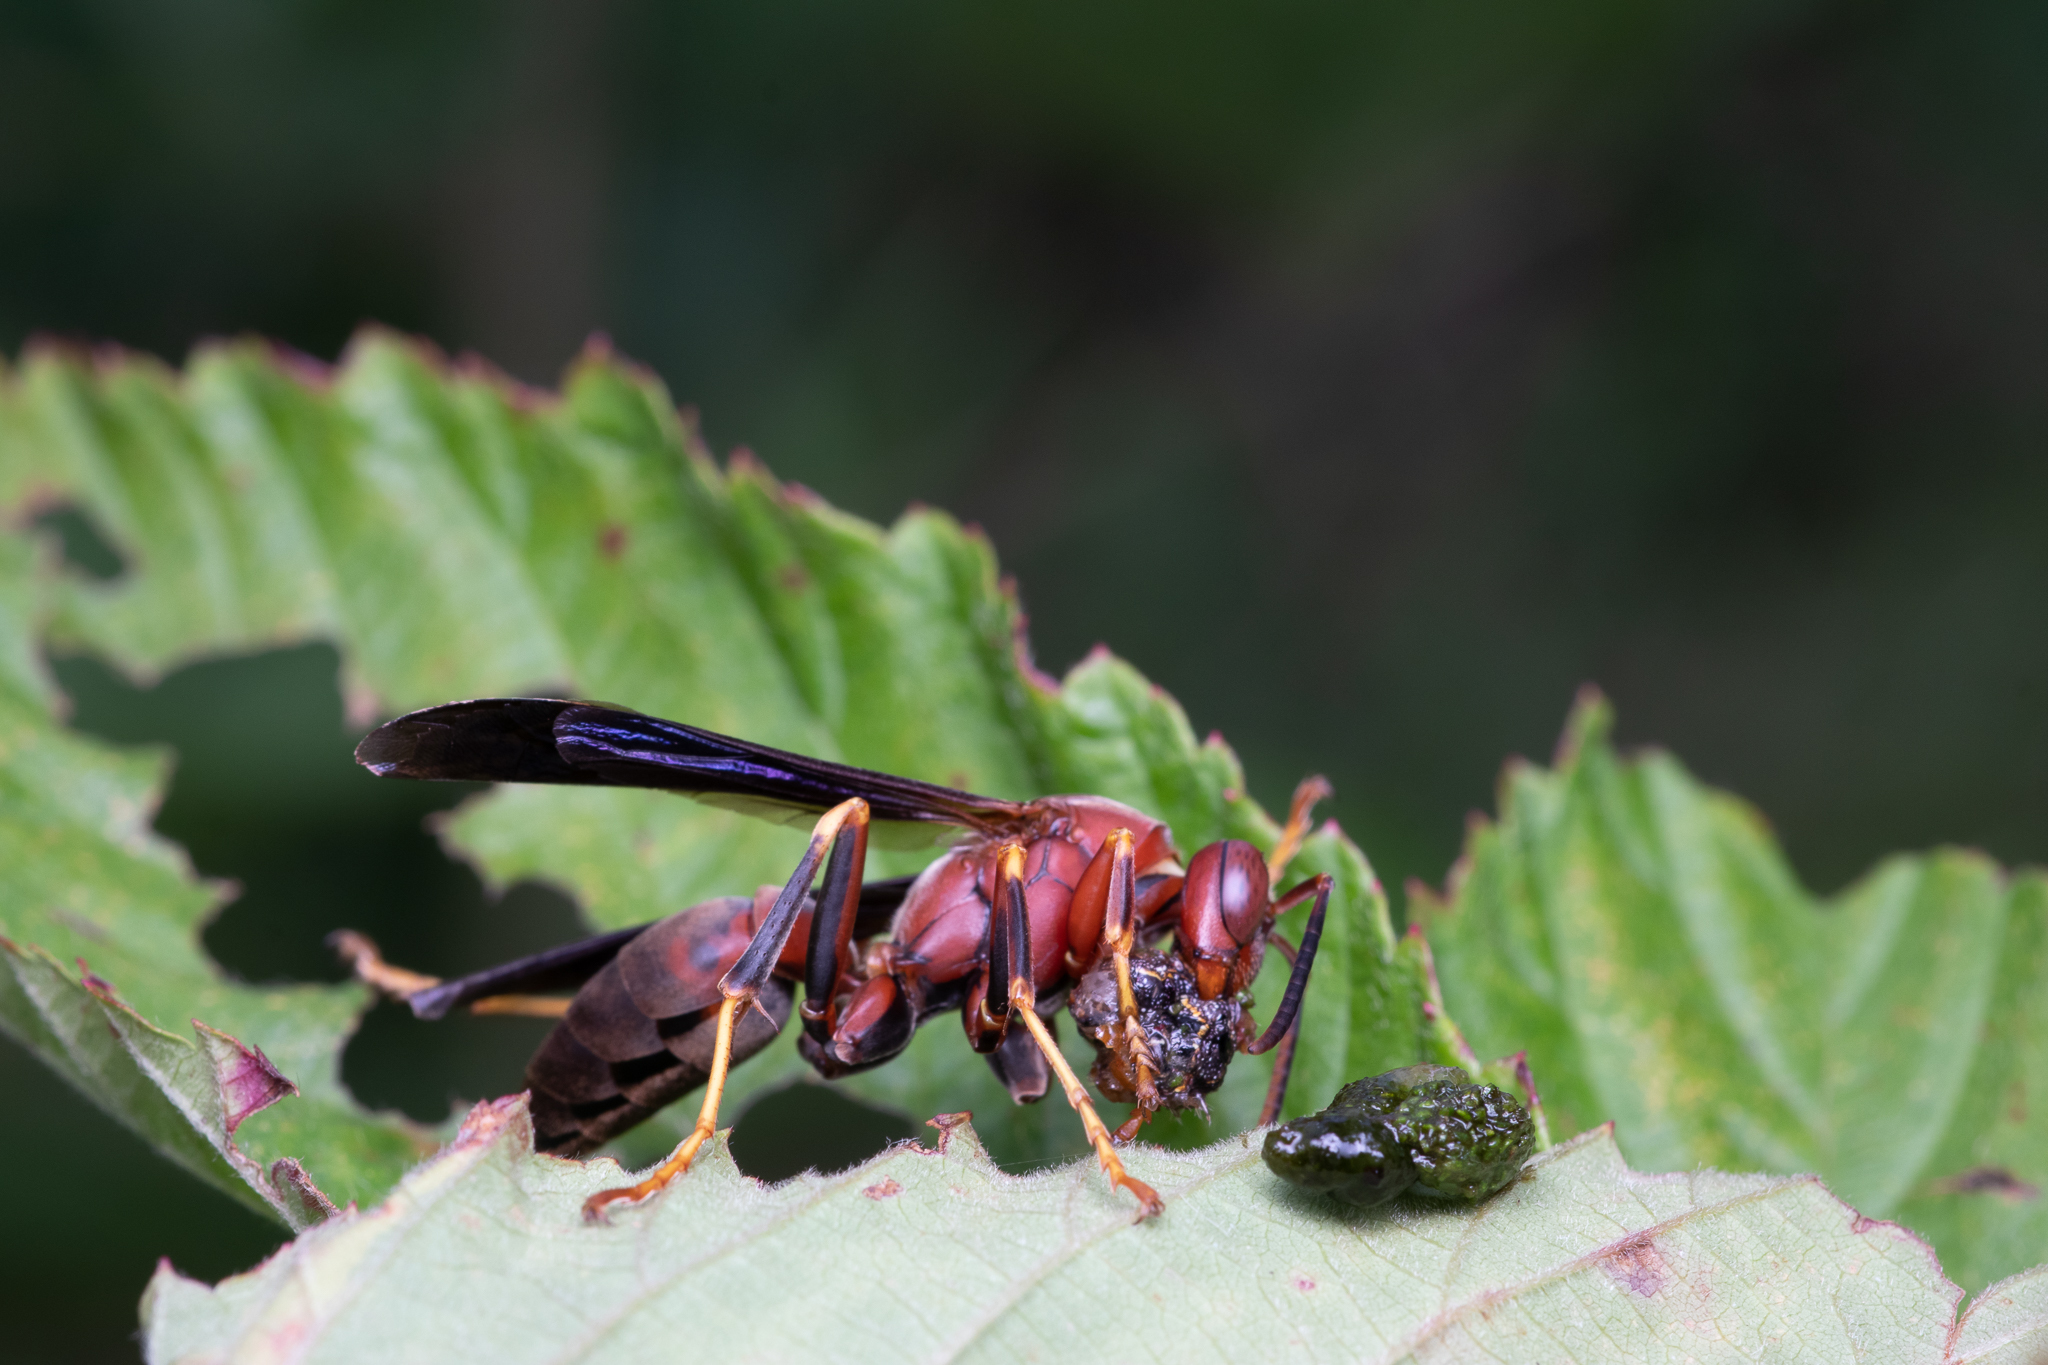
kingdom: Animalia
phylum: Arthropoda
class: Insecta
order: Hymenoptera
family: Eumenidae
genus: Polistes
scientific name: Polistes metricus
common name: Metric paper wasp
